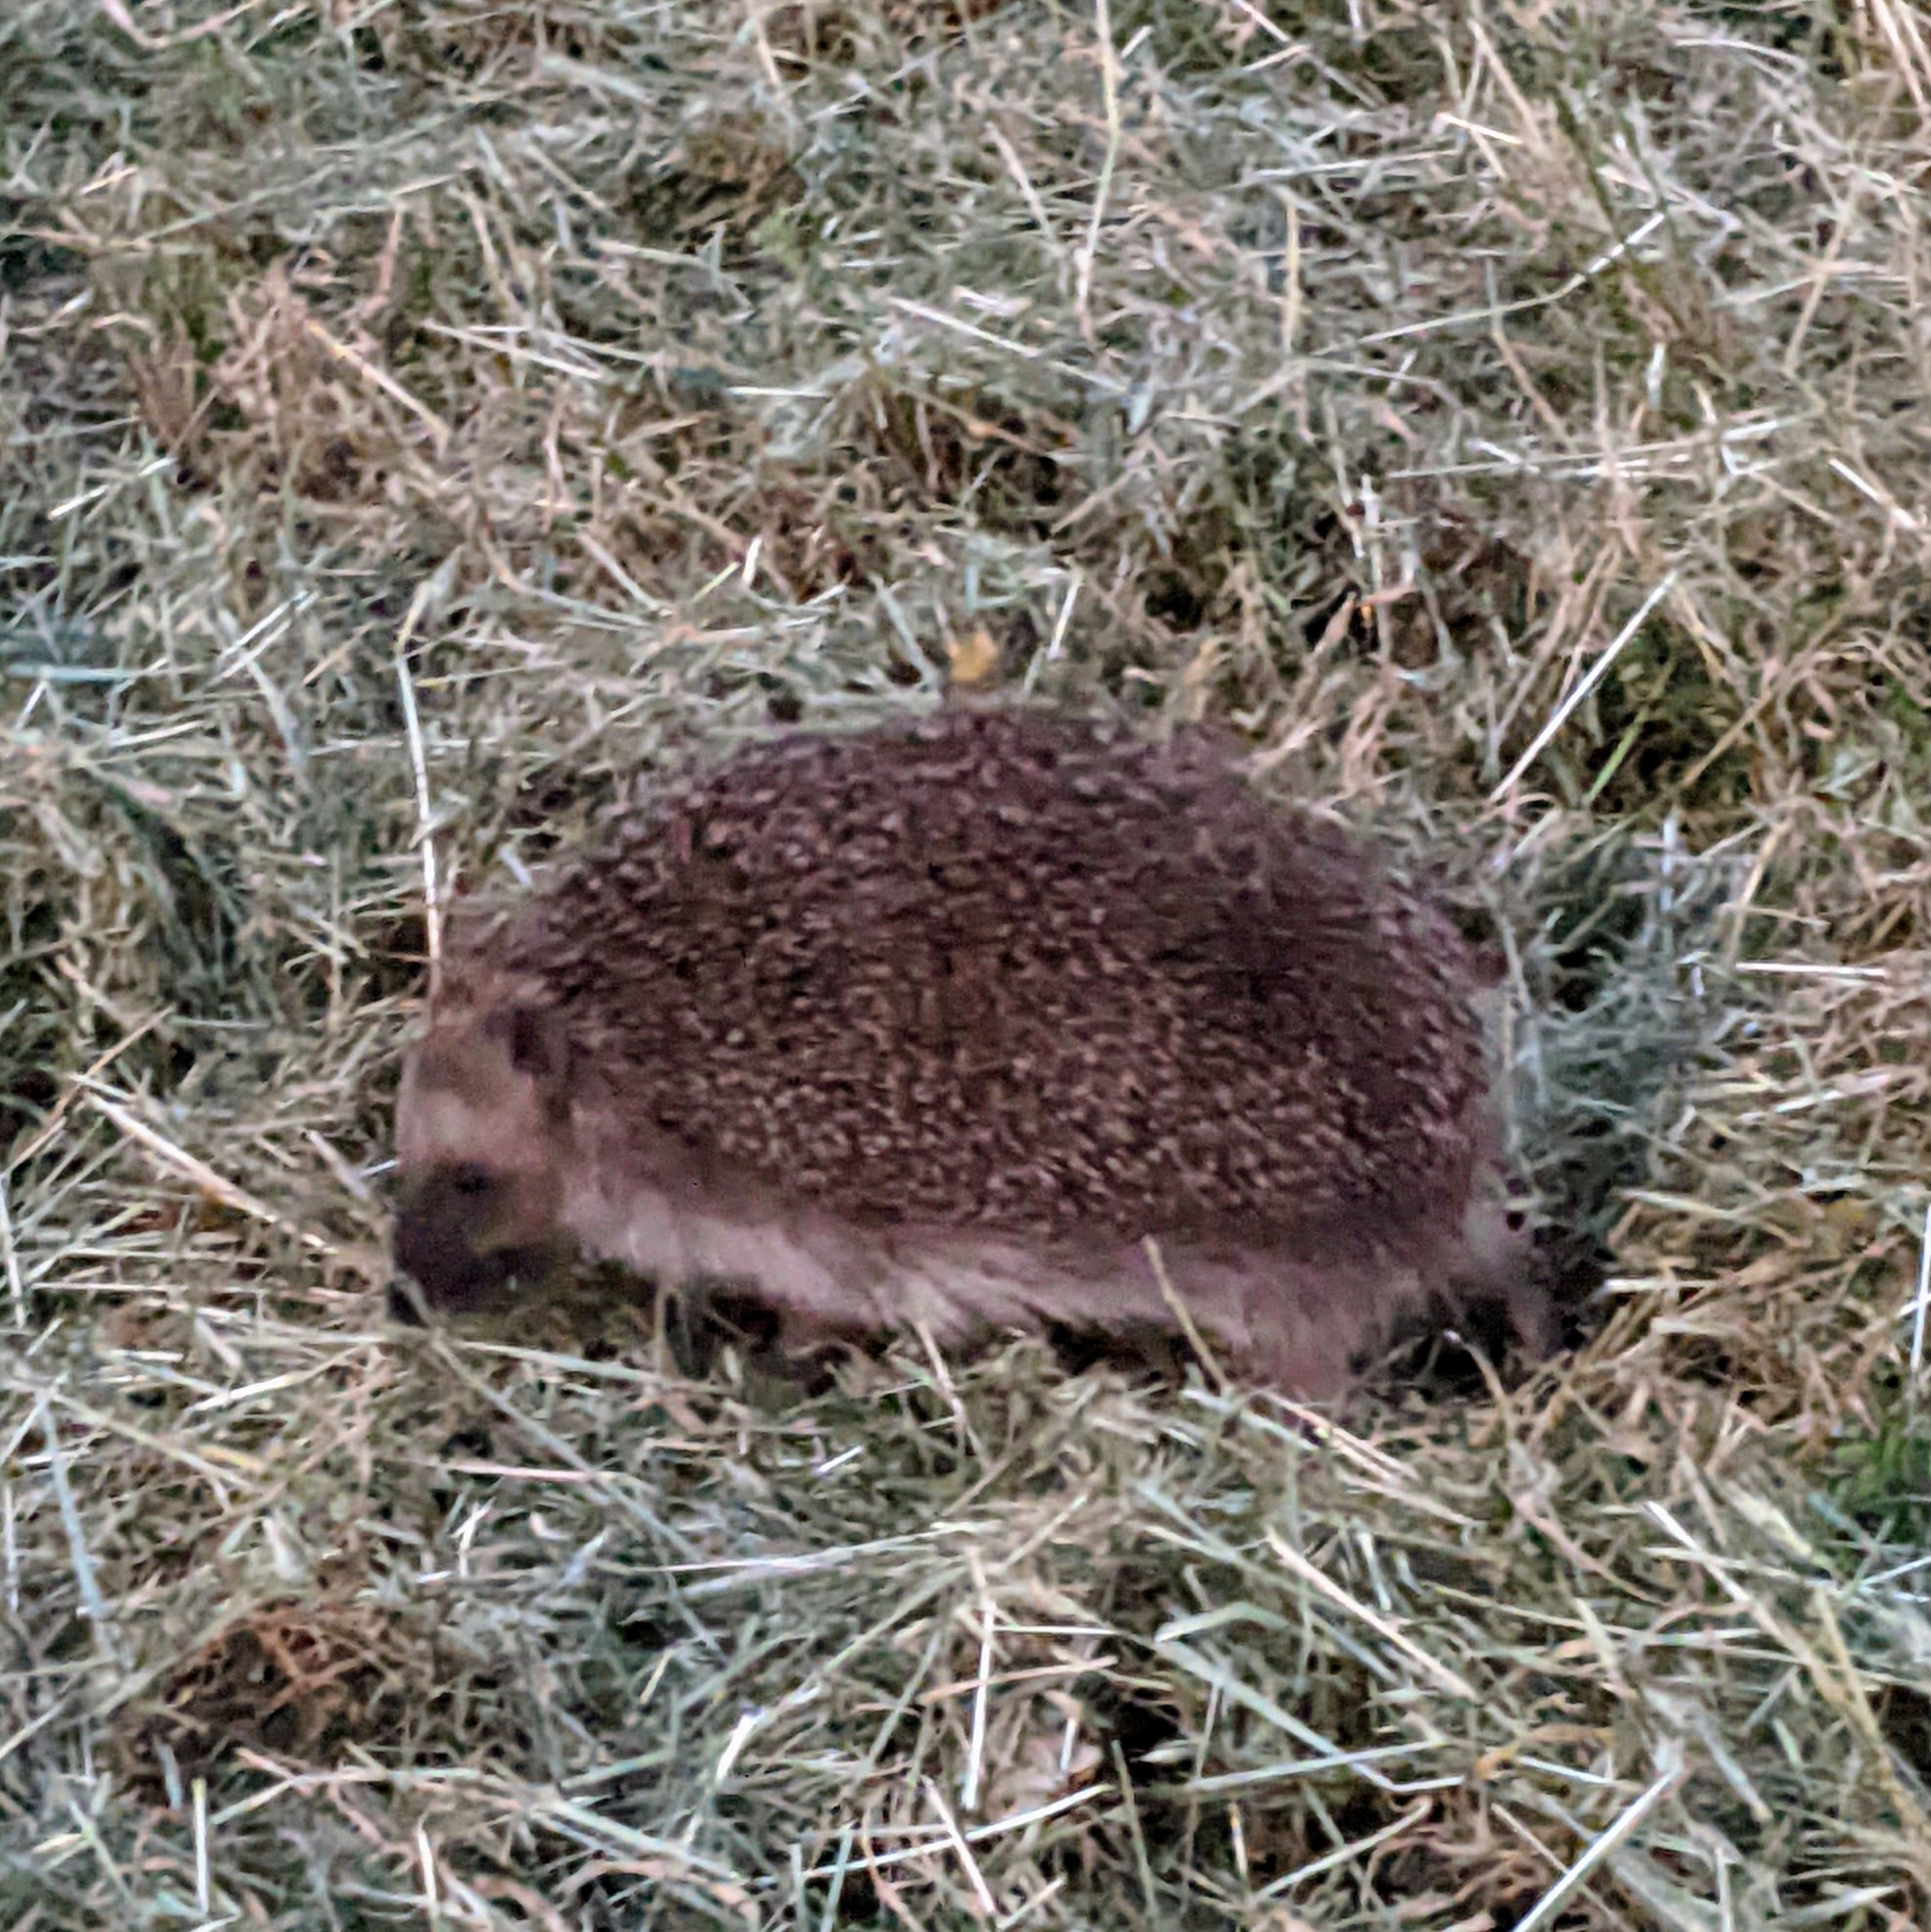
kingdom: Animalia
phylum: Chordata
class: Mammalia
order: Erinaceomorpha
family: Erinaceidae
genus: Erinaceus
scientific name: Erinaceus europaeus
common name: West european hedgehog
